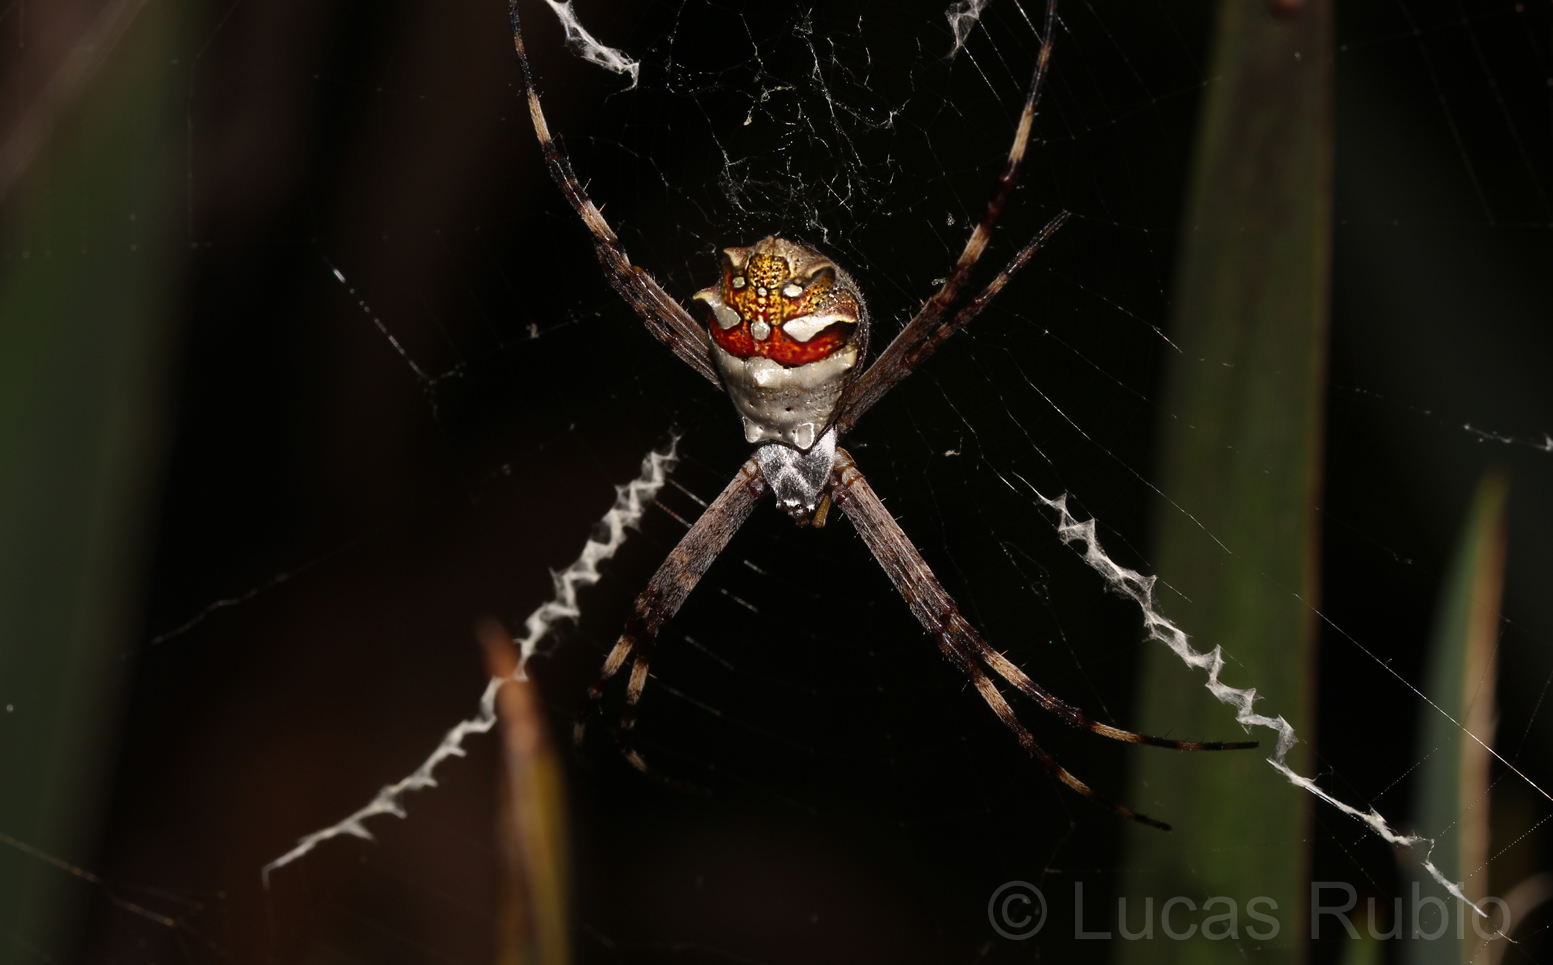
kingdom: Animalia
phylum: Arthropoda
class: Arachnida
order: Araneae
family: Araneidae
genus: Argiope
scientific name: Argiope argentata
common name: Orb weavers
